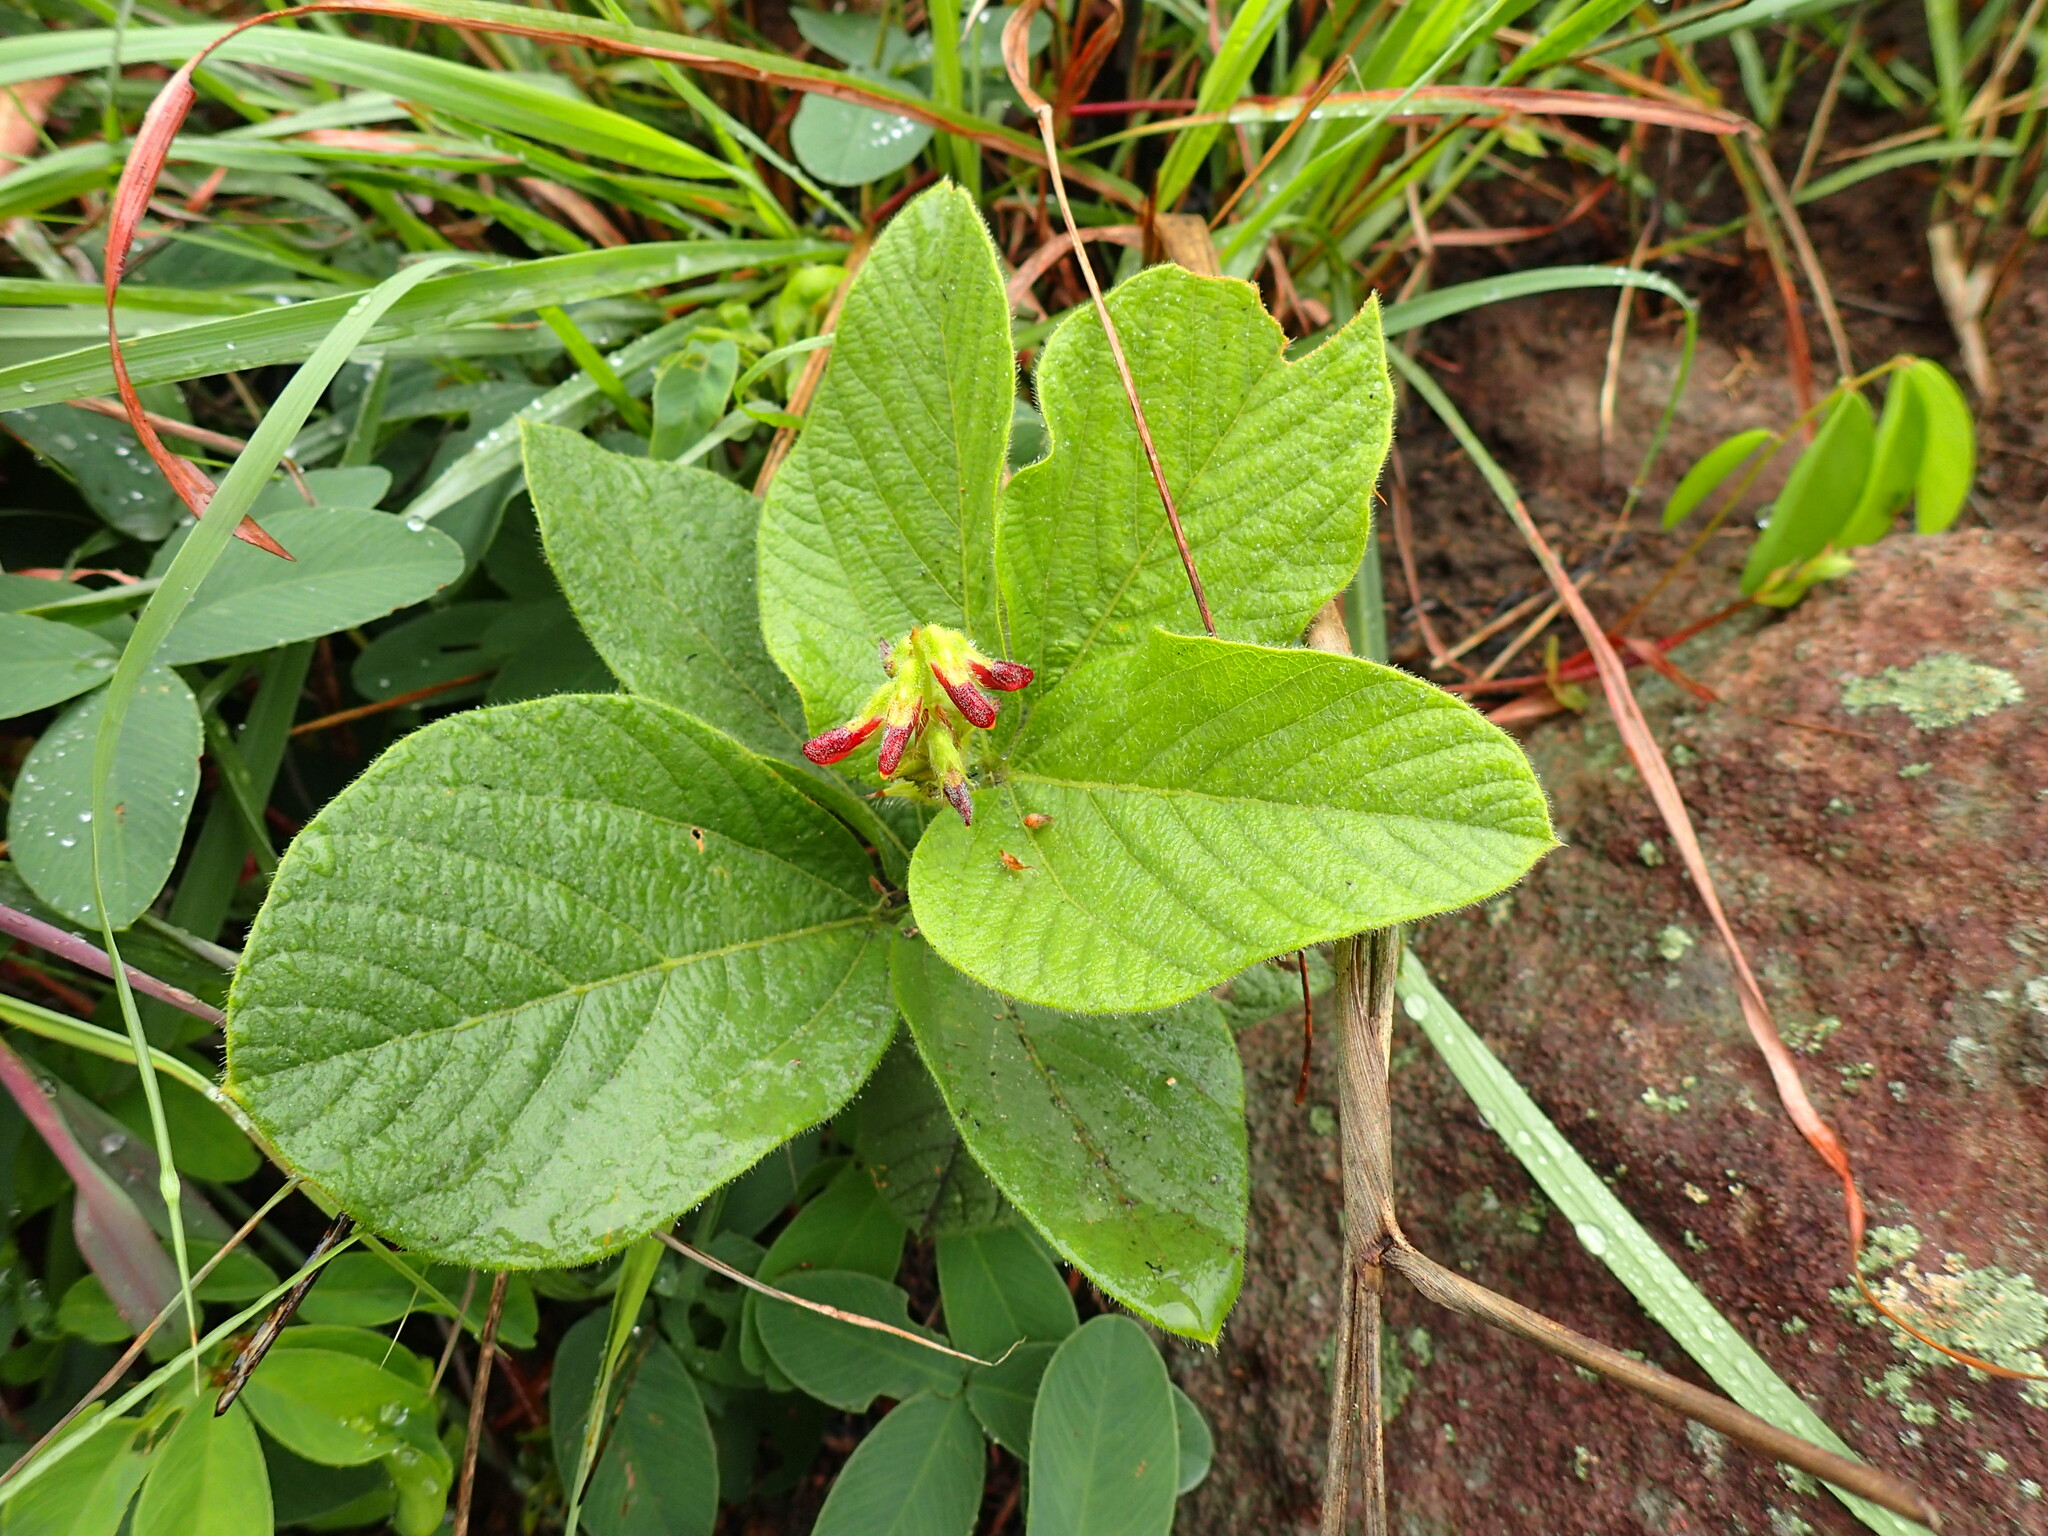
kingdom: Plantae
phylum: Tracheophyta
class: Magnoliopsida
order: Fabales
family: Fabaceae
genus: Eriosema
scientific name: Eriosema cordatum
